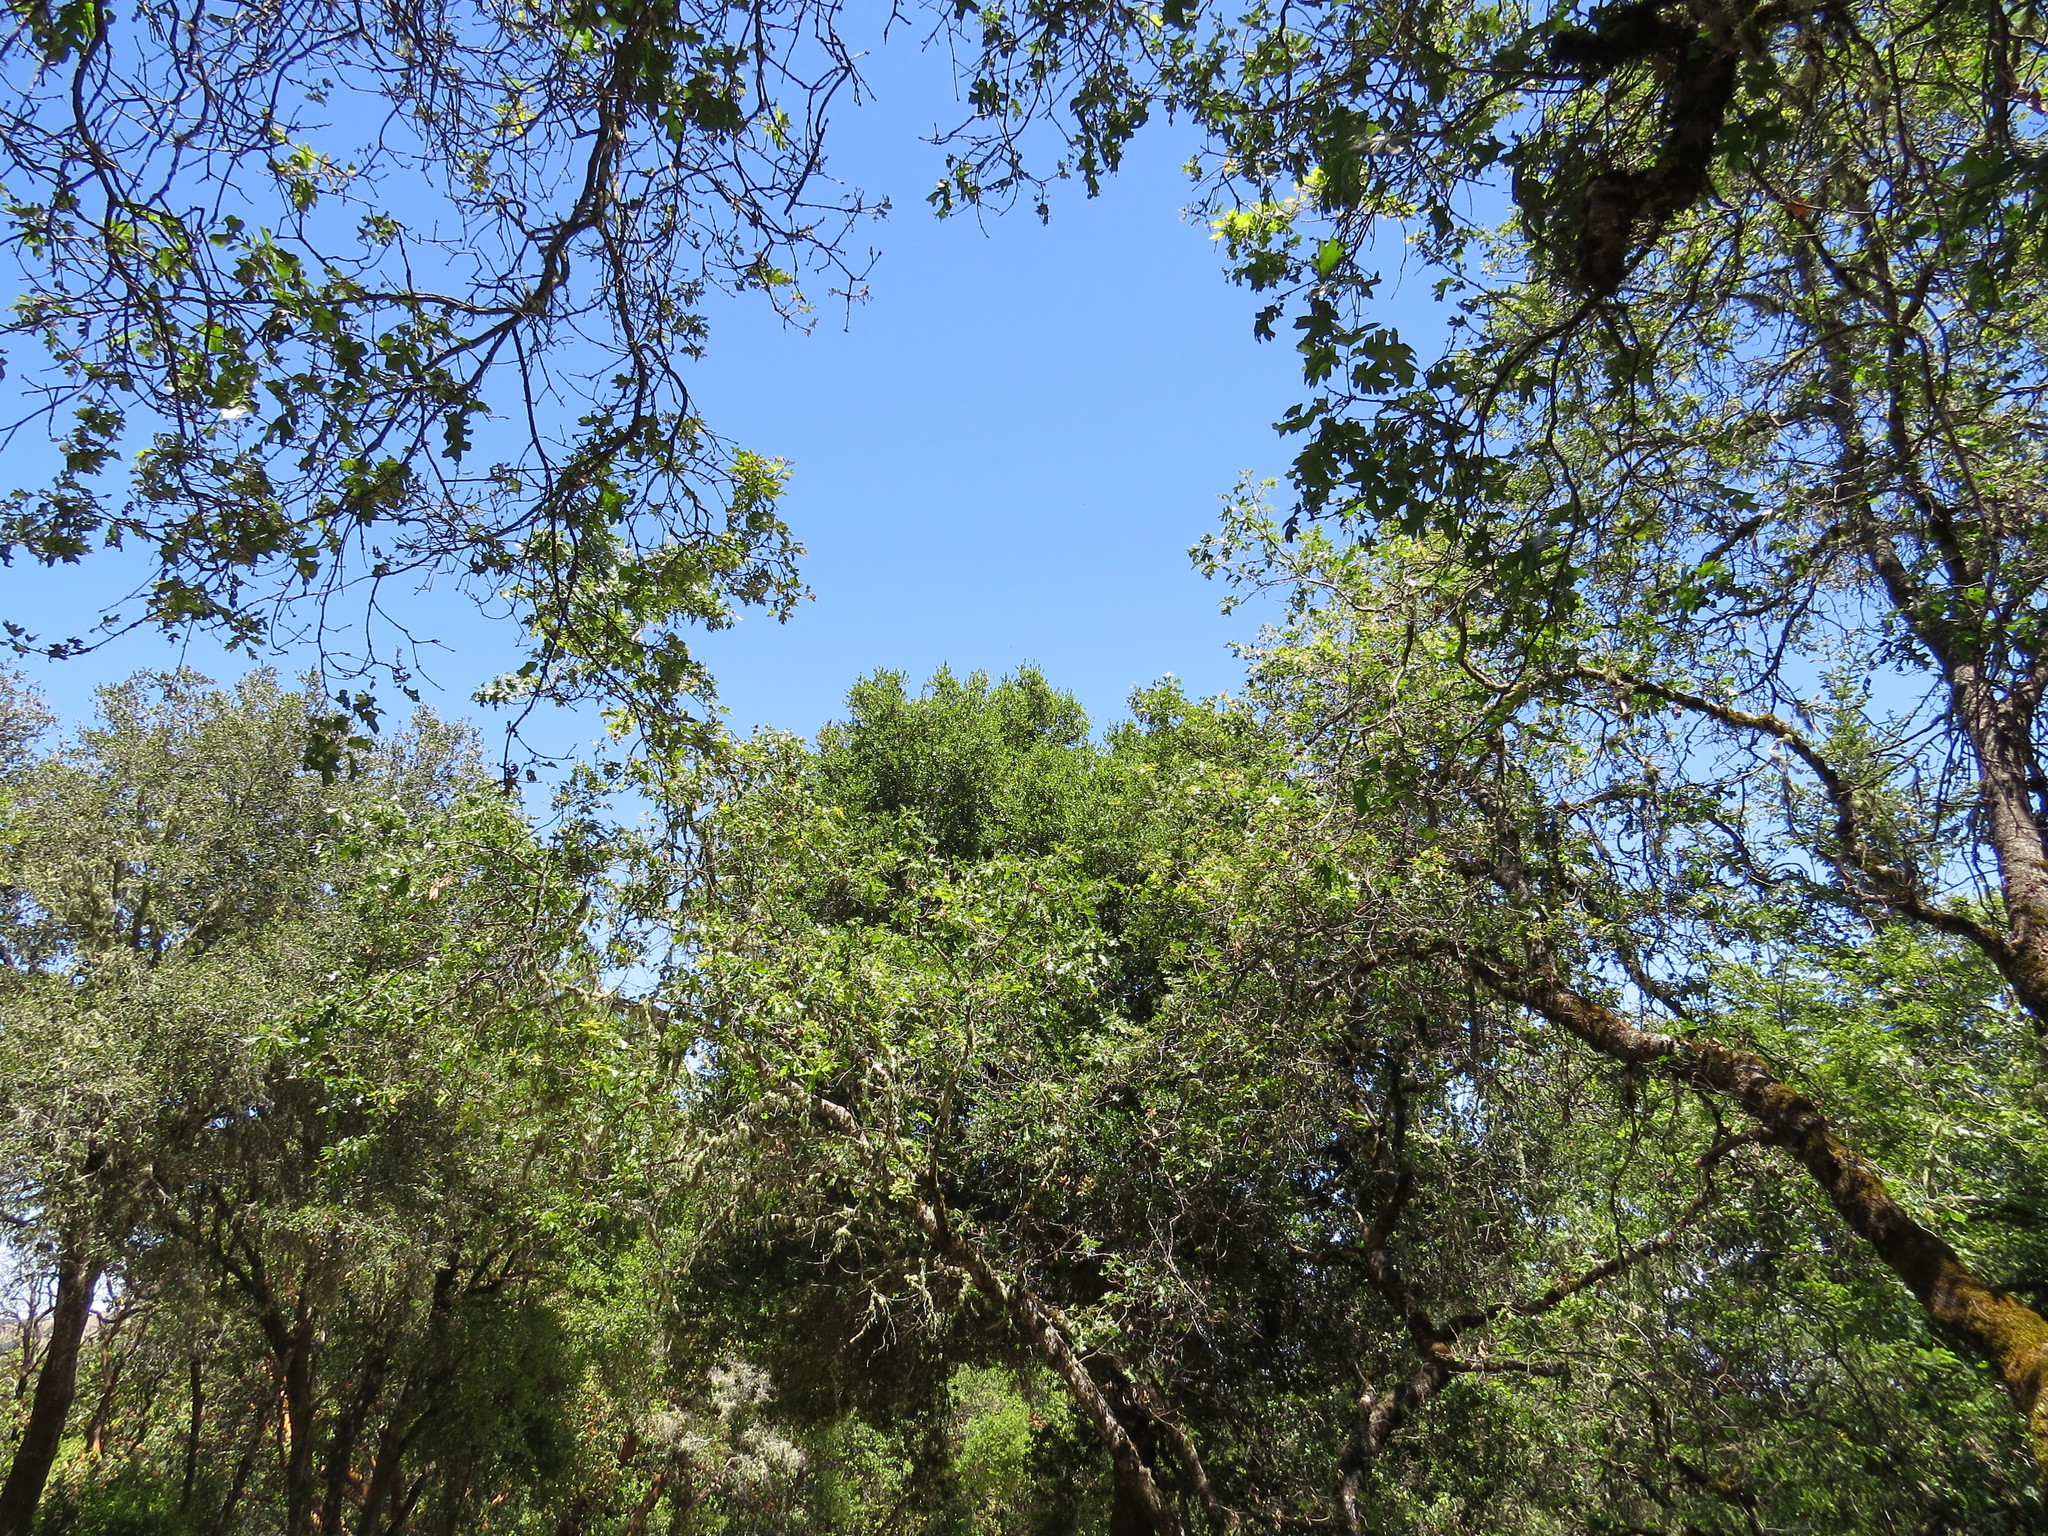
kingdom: Plantae
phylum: Tracheophyta
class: Magnoliopsida
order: Fagales
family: Fagaceae
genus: Quercus
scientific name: Quercus kelloggii
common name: California black oak
